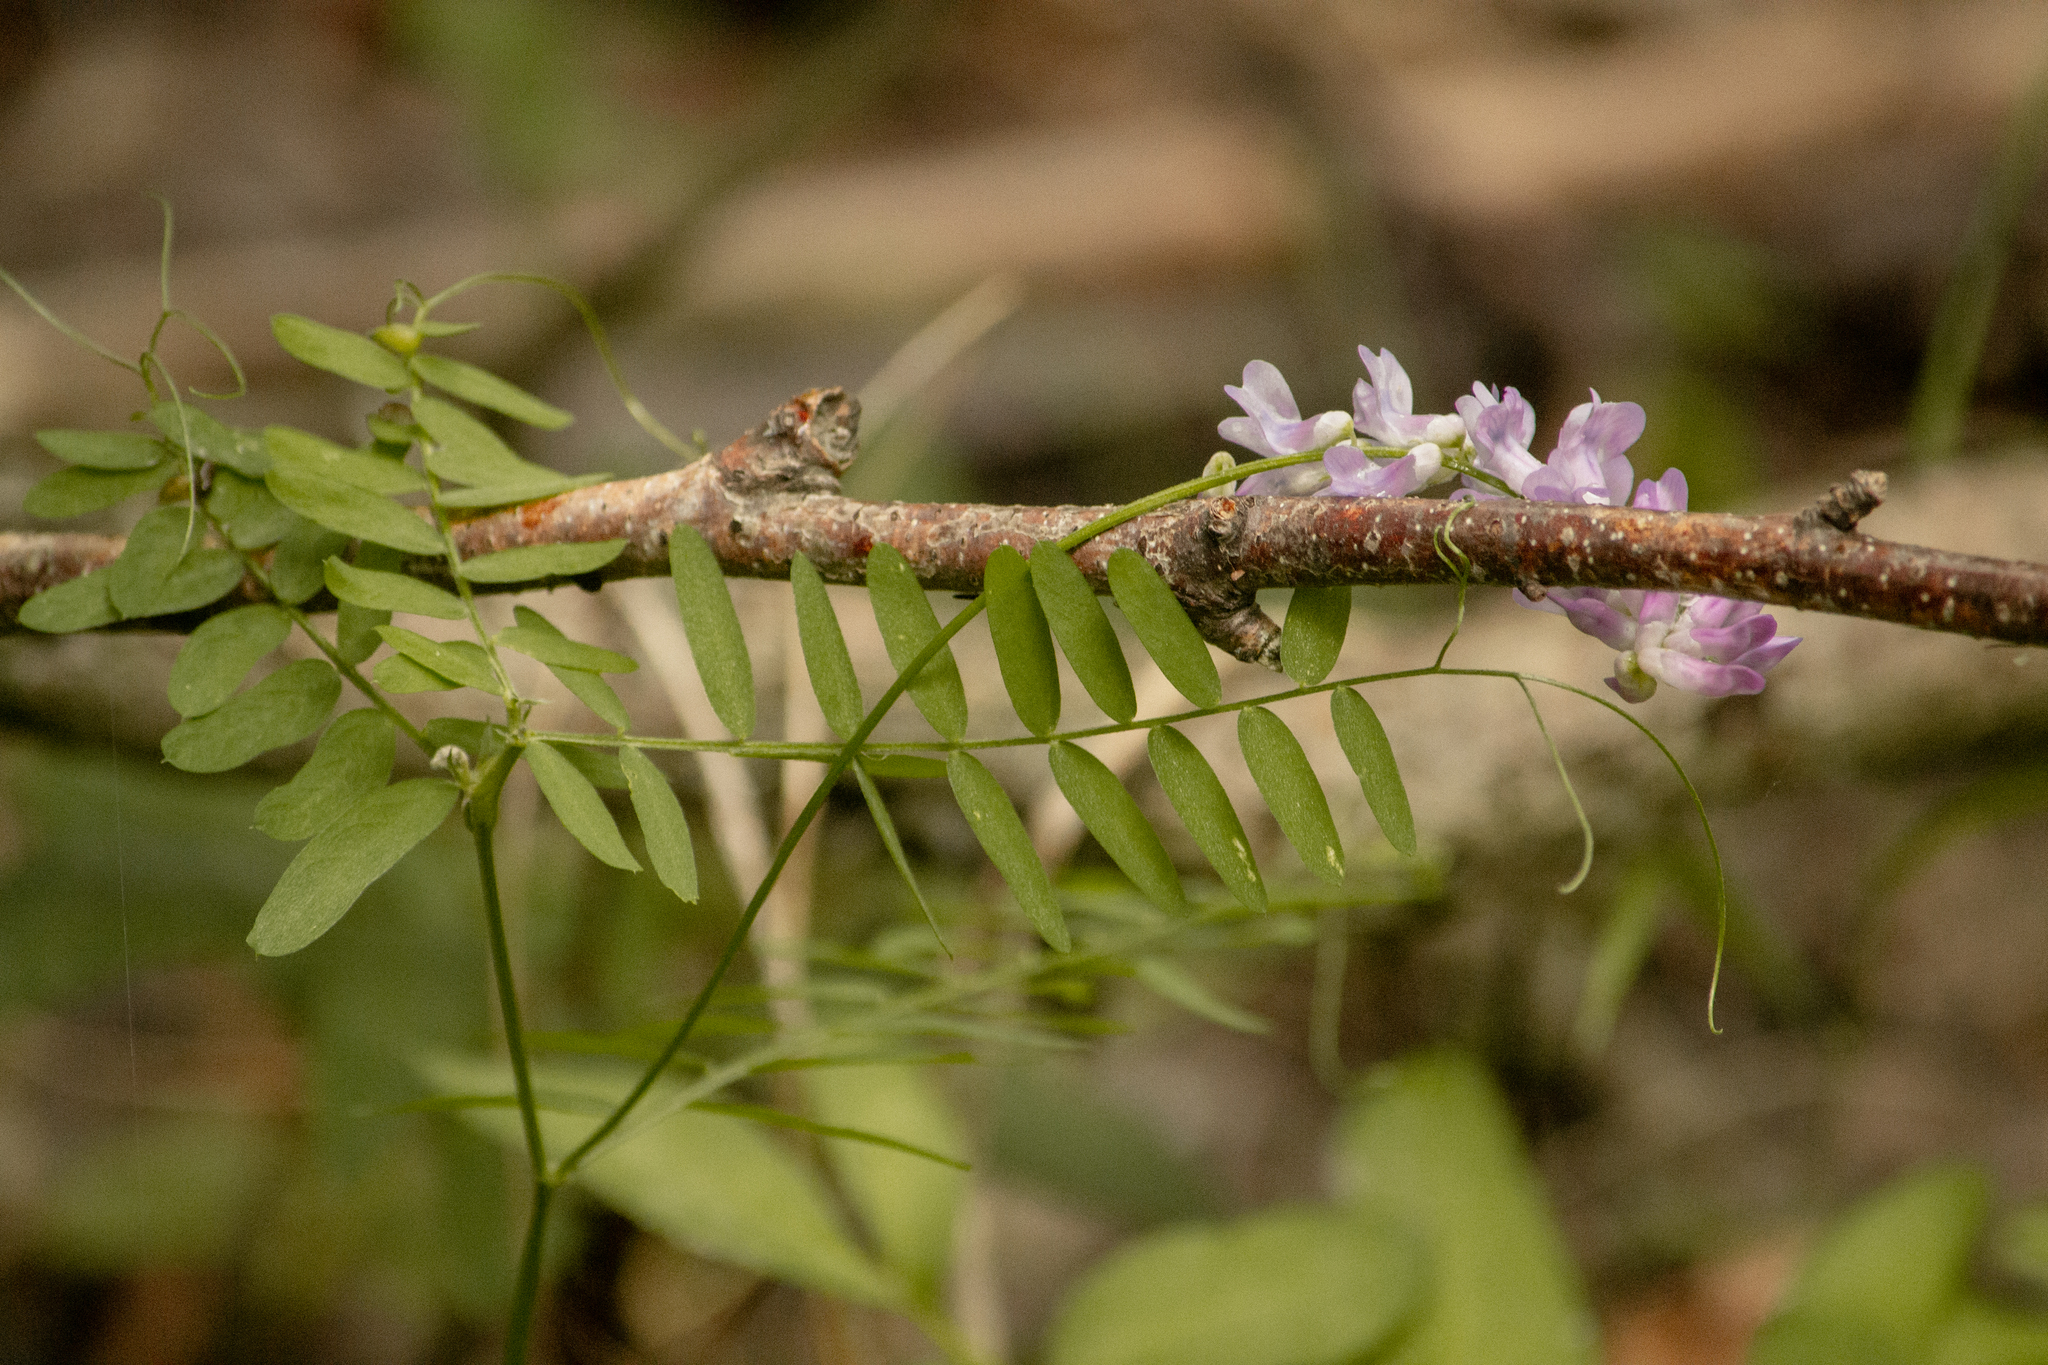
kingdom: Plantae
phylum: Tracheophyta
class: Magnoliopsida
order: Fabales
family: Fabaceae
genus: Vicia
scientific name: Vicia cracca
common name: Bird vetch
